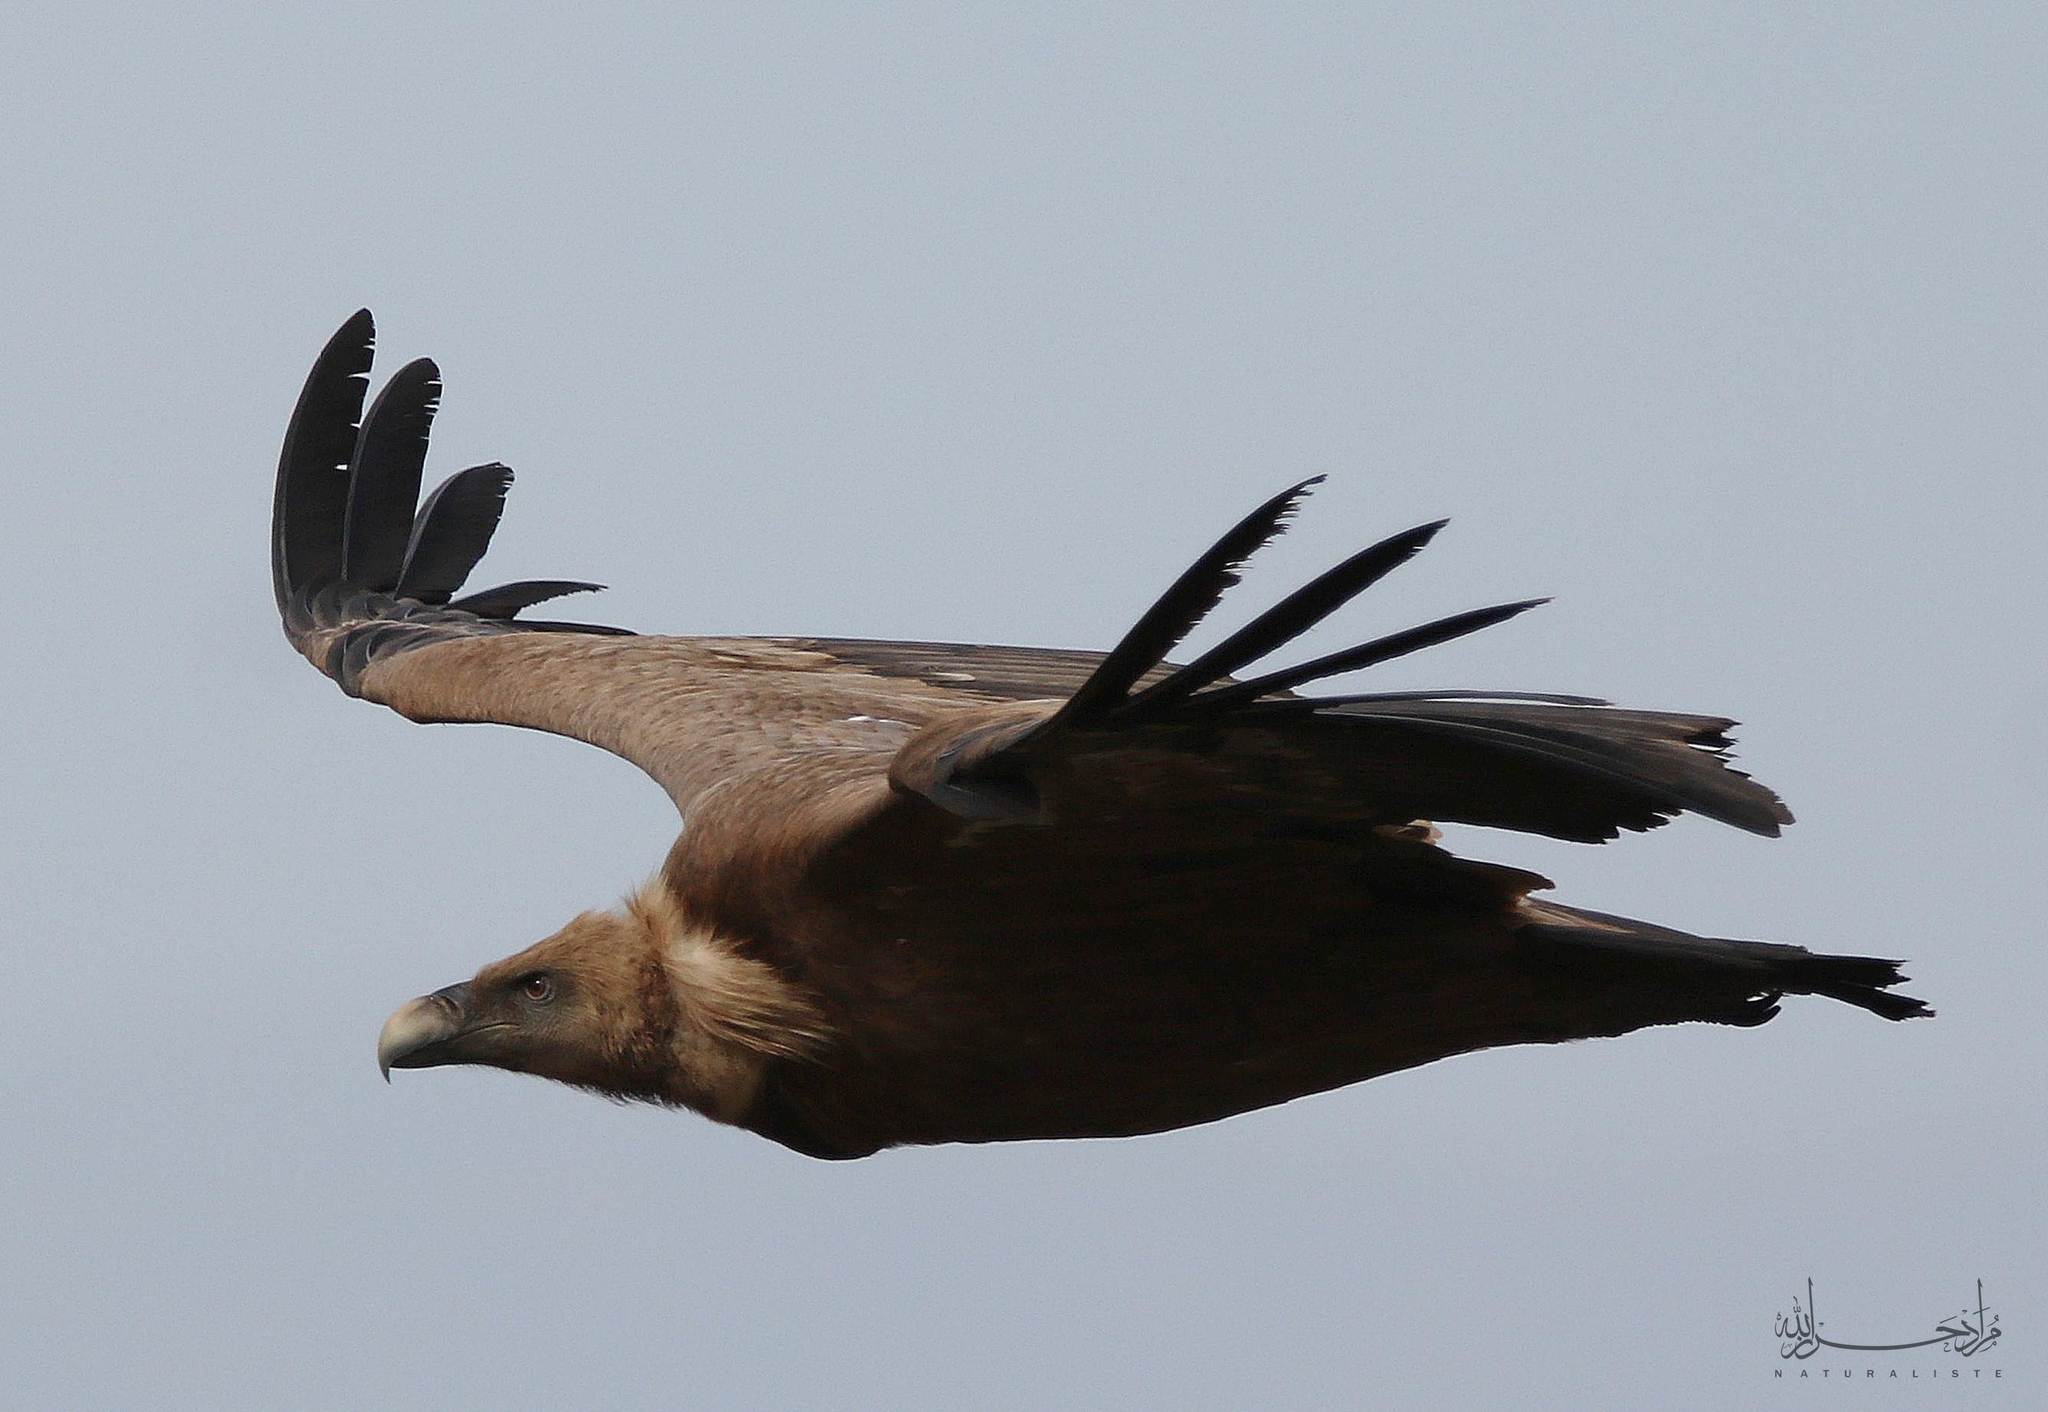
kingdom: Animalia
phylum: Chordata
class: Aves
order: Accipitriformes
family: Accipitridae
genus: Gyps
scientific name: Gyps fulvus
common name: Griffon vulture
